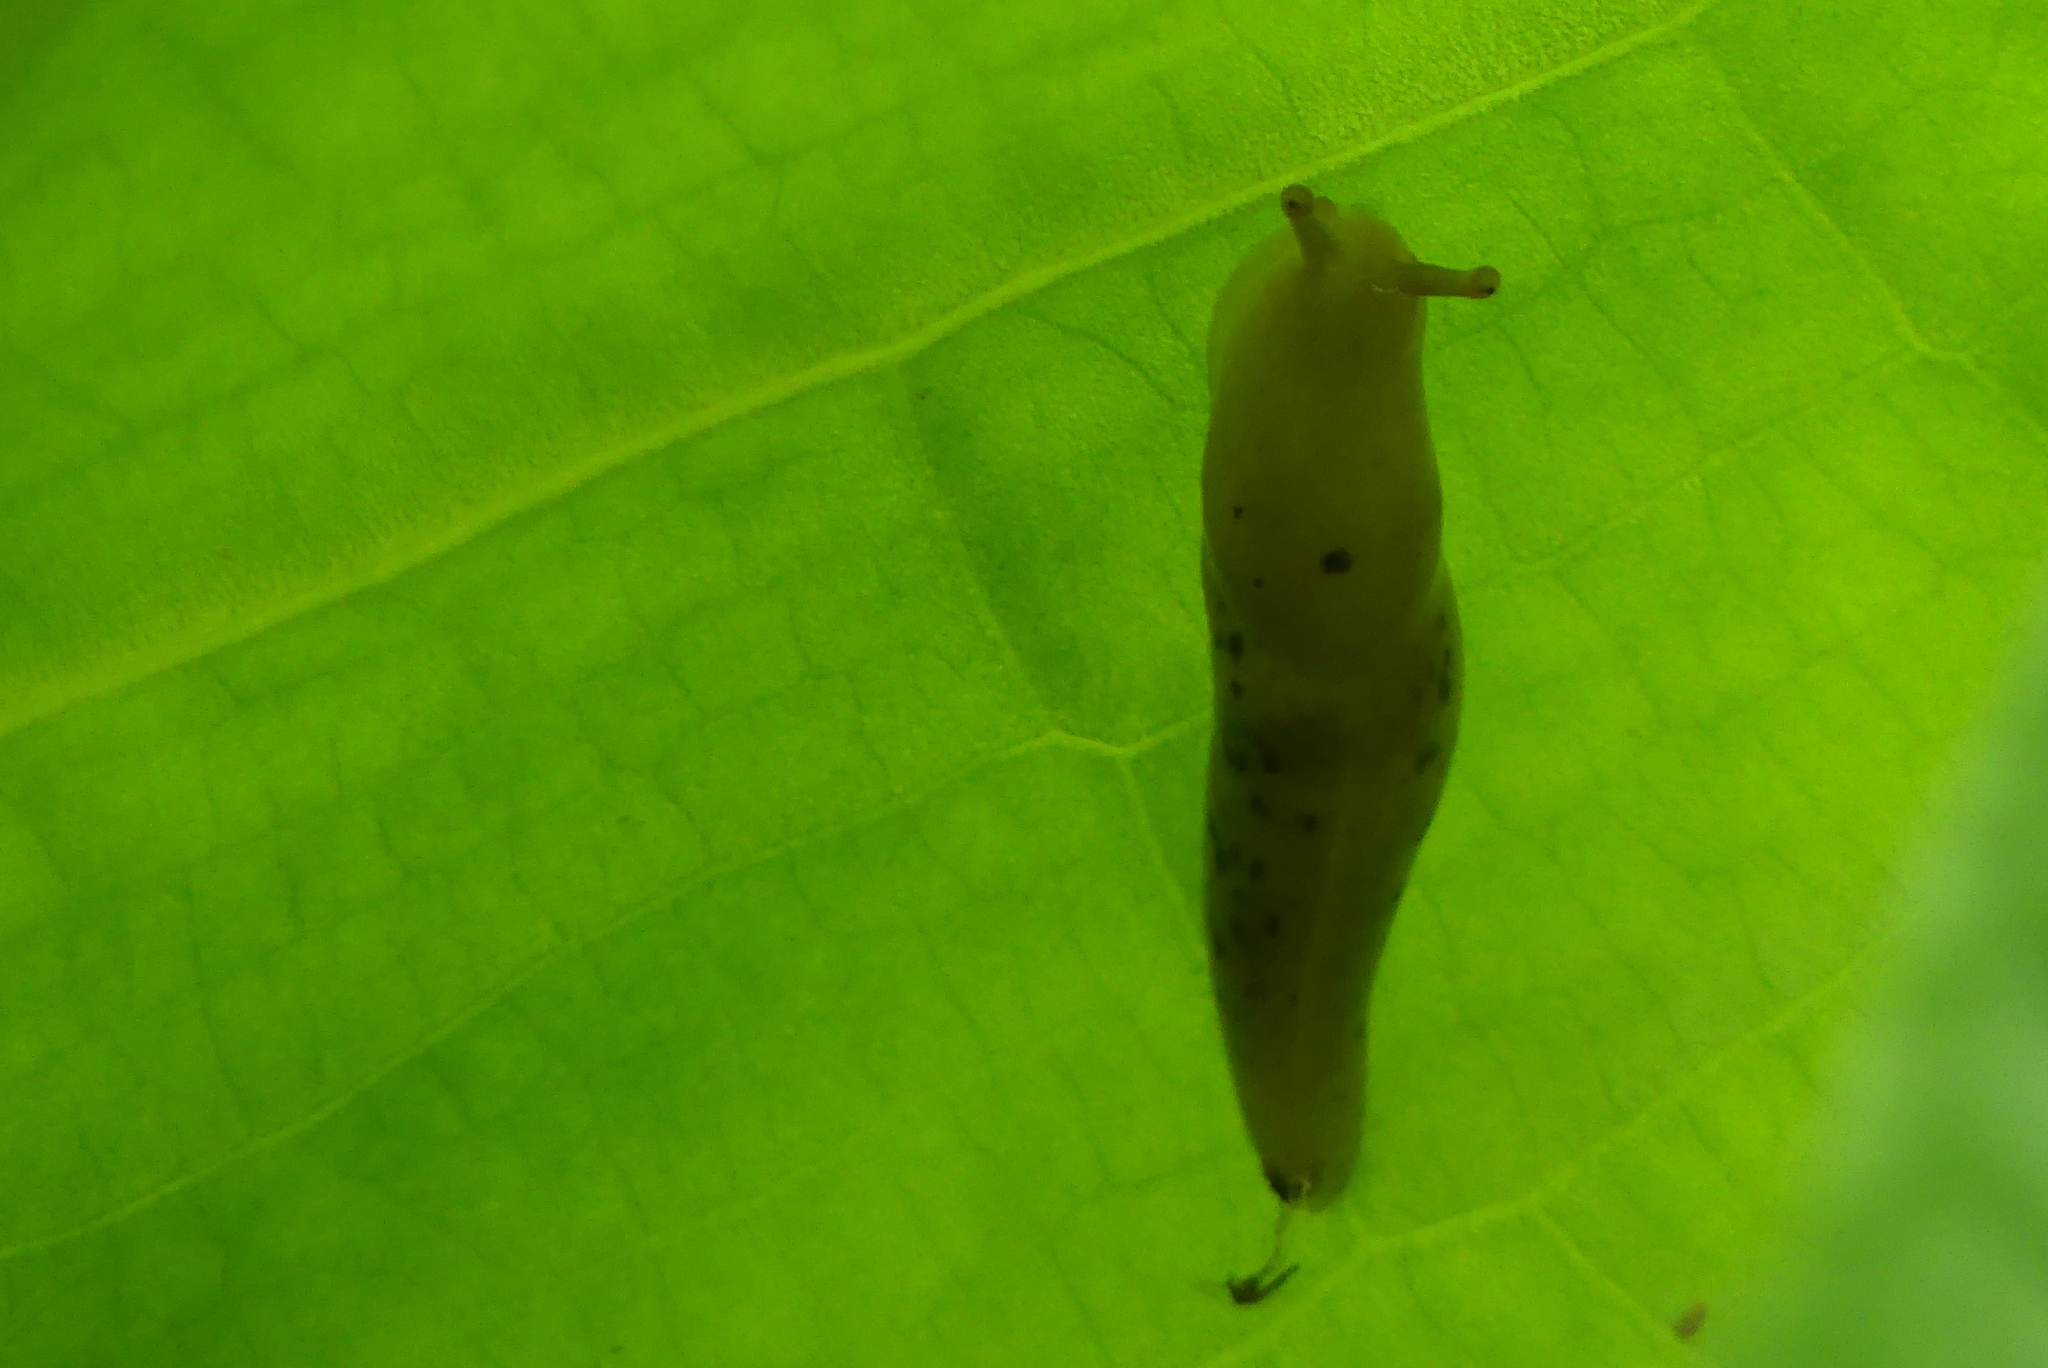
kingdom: Animalia
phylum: Mollusca
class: Gastropoda
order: Stylommatophora
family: Ariolimacidae
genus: Ariolimax
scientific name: Ariolimax columbianus
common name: Pacific banana slug
